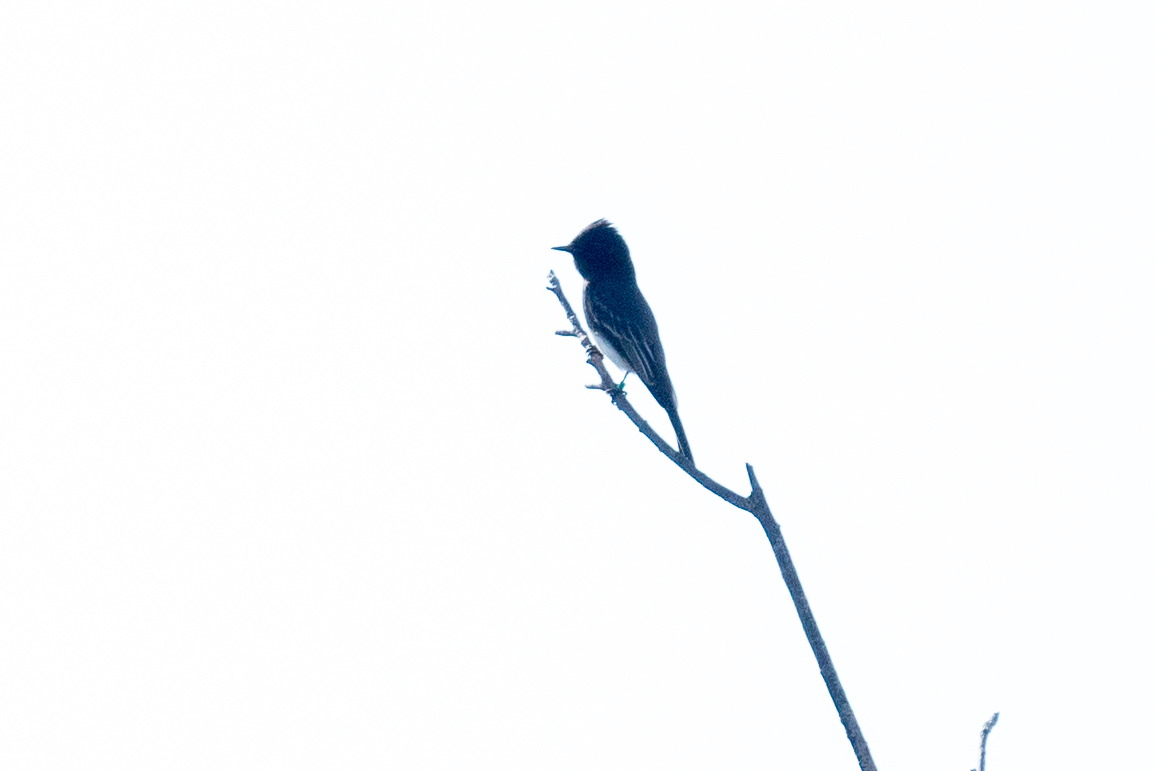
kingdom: Animalia
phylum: Chordata
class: Aves
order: Passeriformes
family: Tyrannidae
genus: Sayornis
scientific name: Sayornis nigricans
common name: Black phoebe
